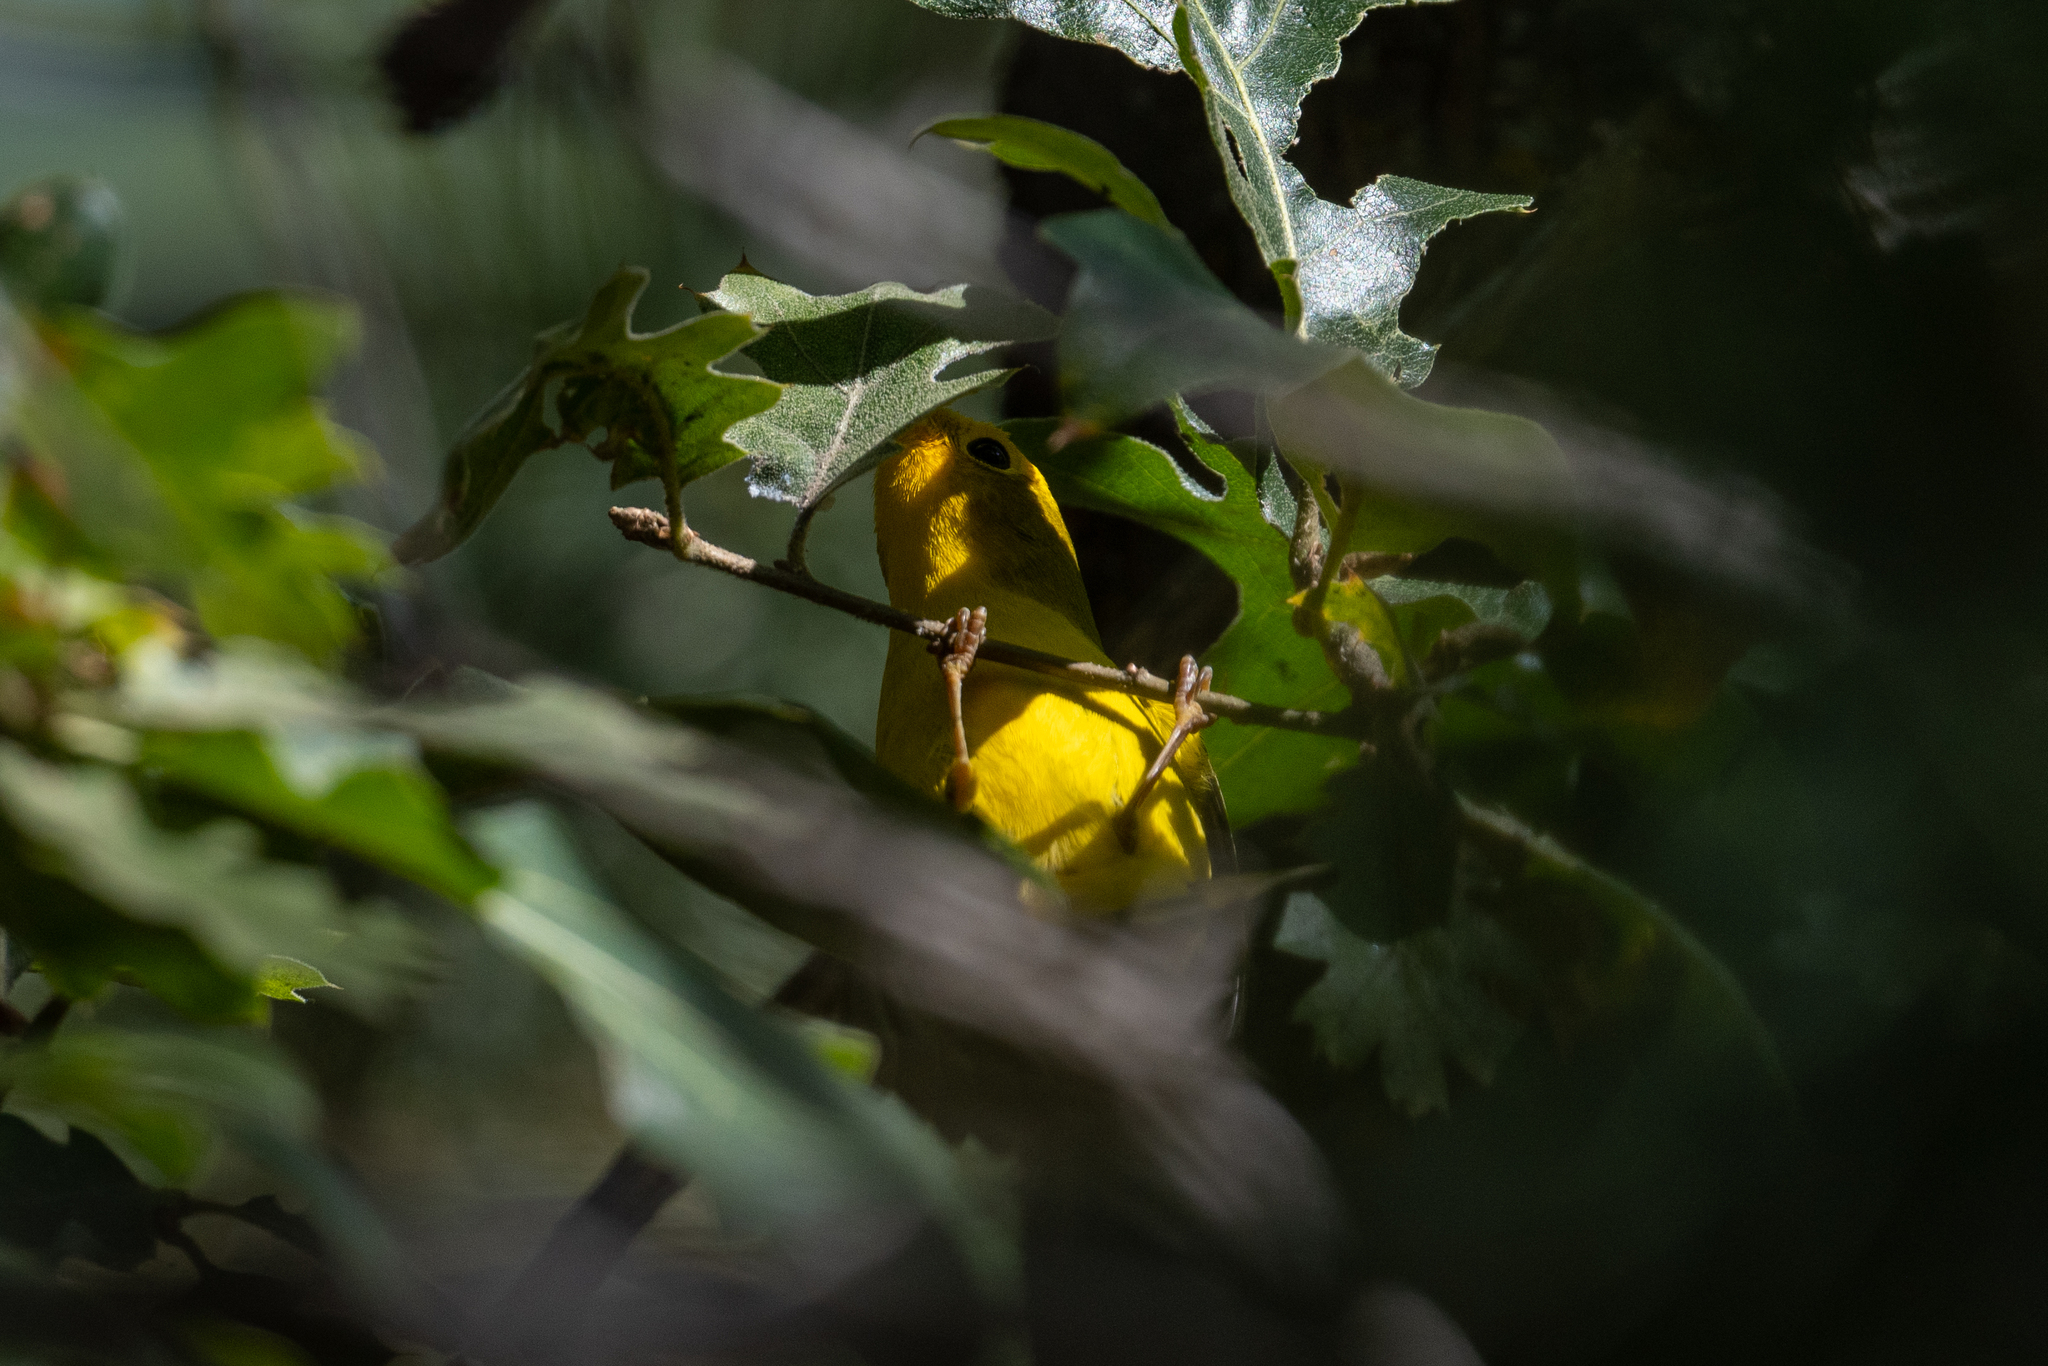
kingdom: Animalia
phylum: Chordata
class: Aves
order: Passeriformes
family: Parulidae
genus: Cardellina
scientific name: Cardellina pusilla
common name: Wilson's warbler
